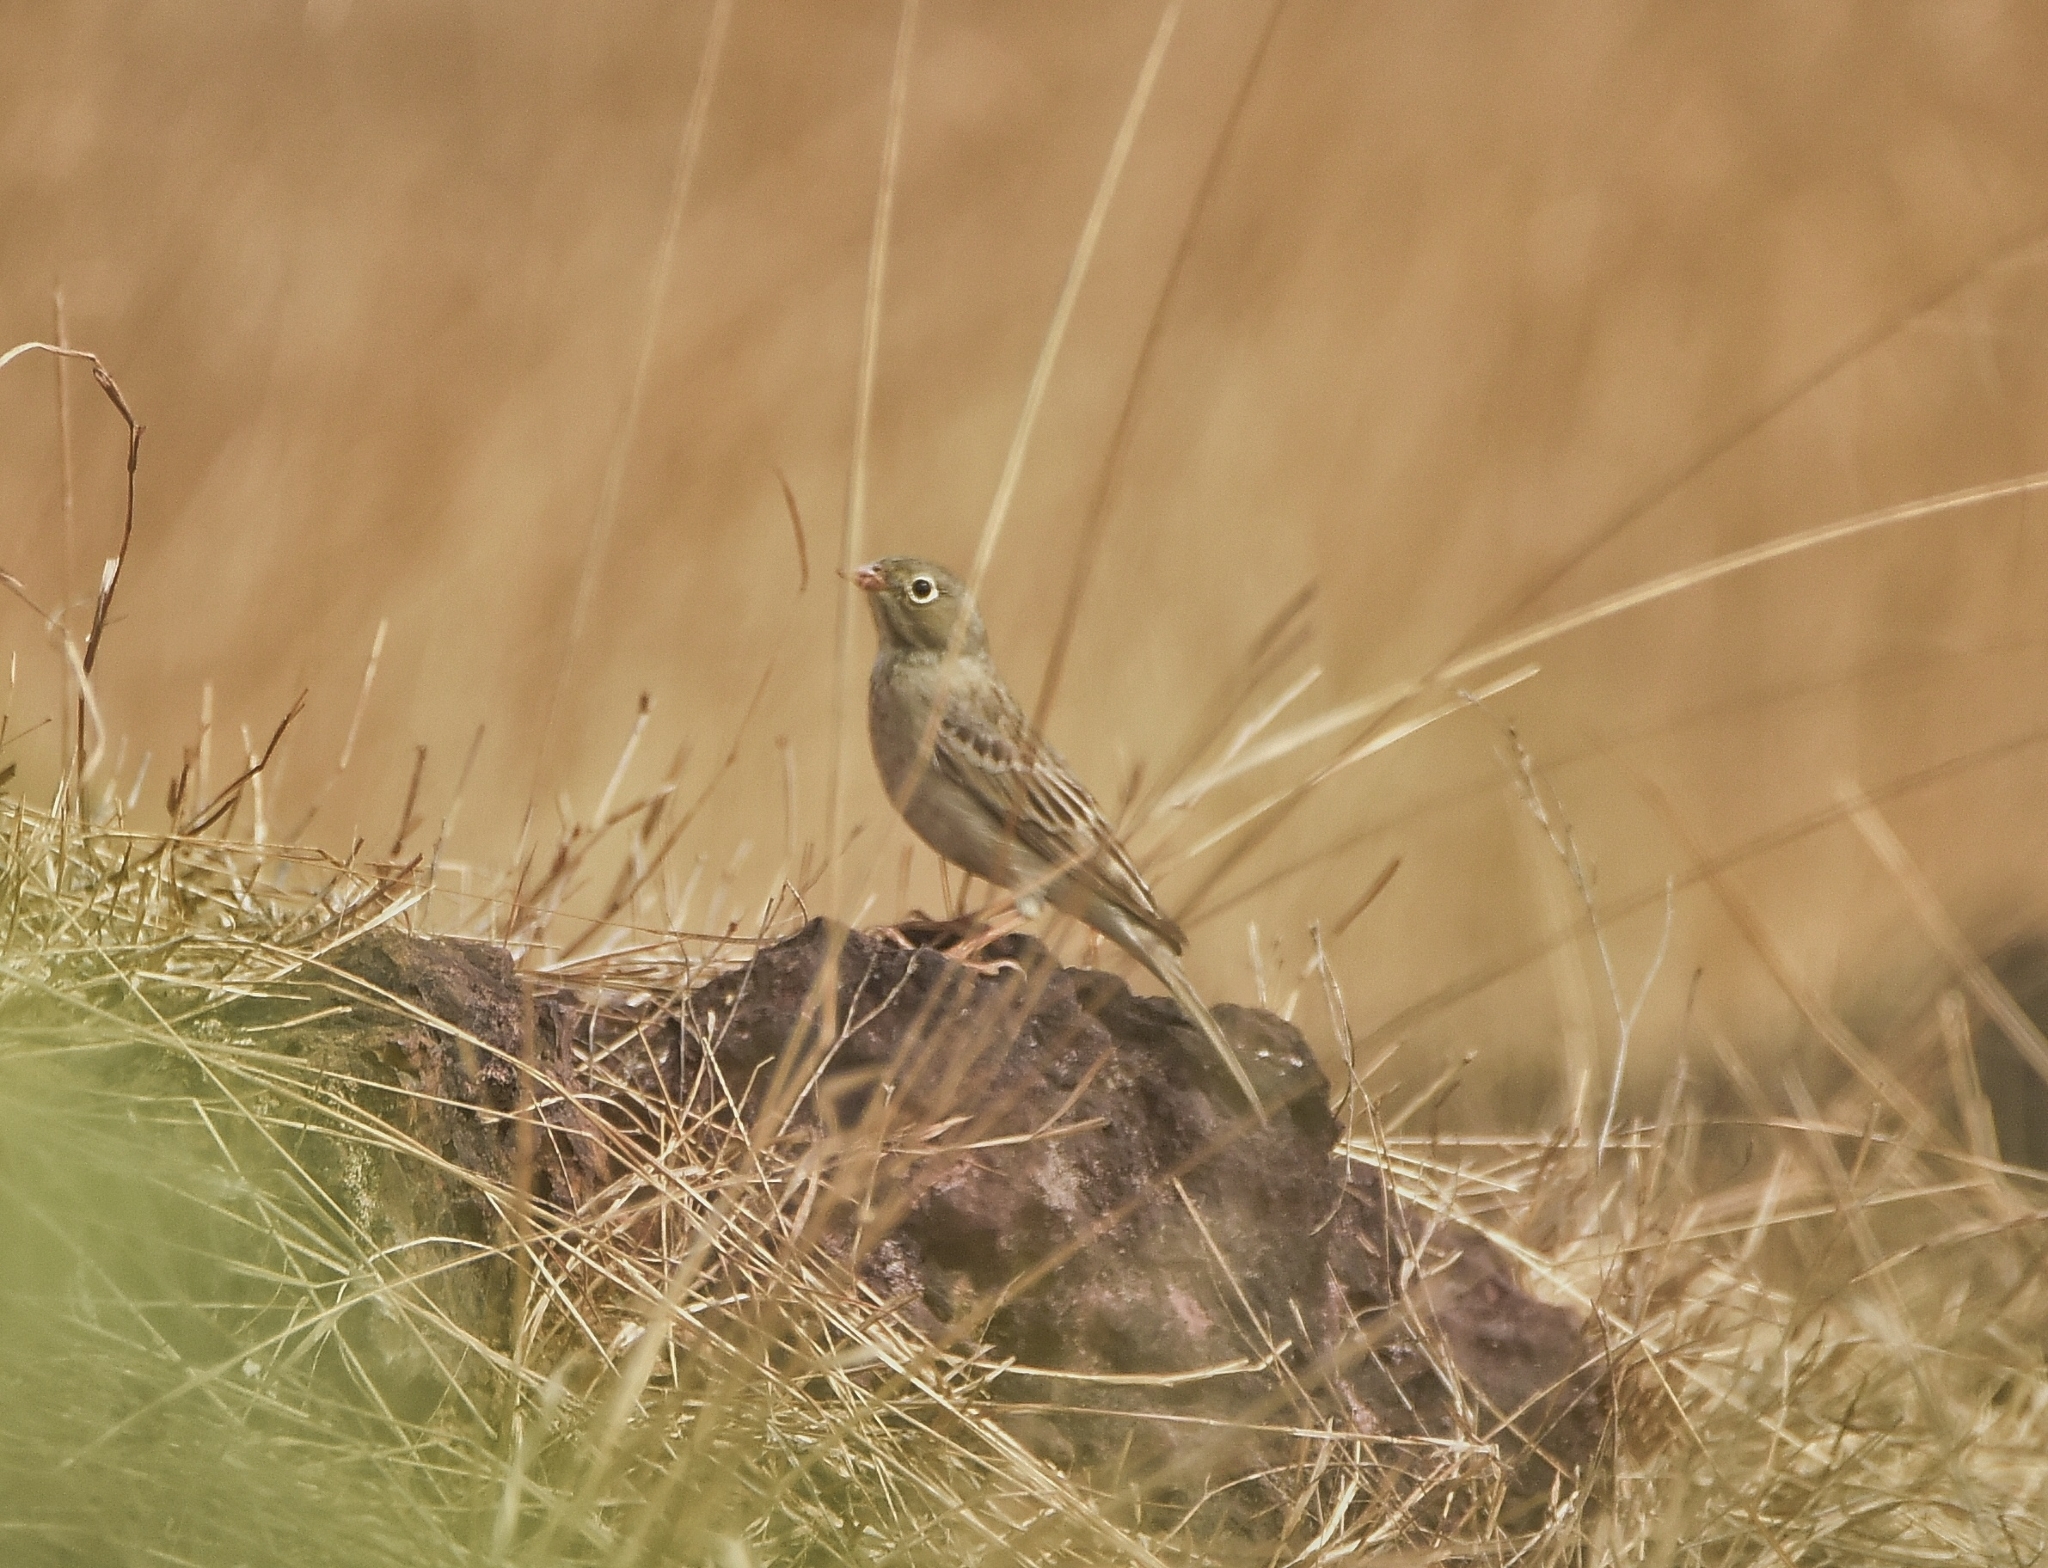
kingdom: Animalia
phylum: Chordata
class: Aves
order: Passeriformes
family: Emberizidae
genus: Emberiza
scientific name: Emberiza buchanani
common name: Grey-necked bunting
